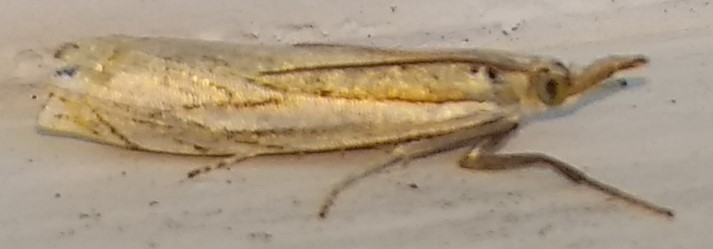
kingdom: Animalia
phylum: Arthropoda
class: Insecta
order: Lepidoptera
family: Crambidae
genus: Crambus
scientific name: Crambus saltuellus
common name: Pasture grass-veneer
